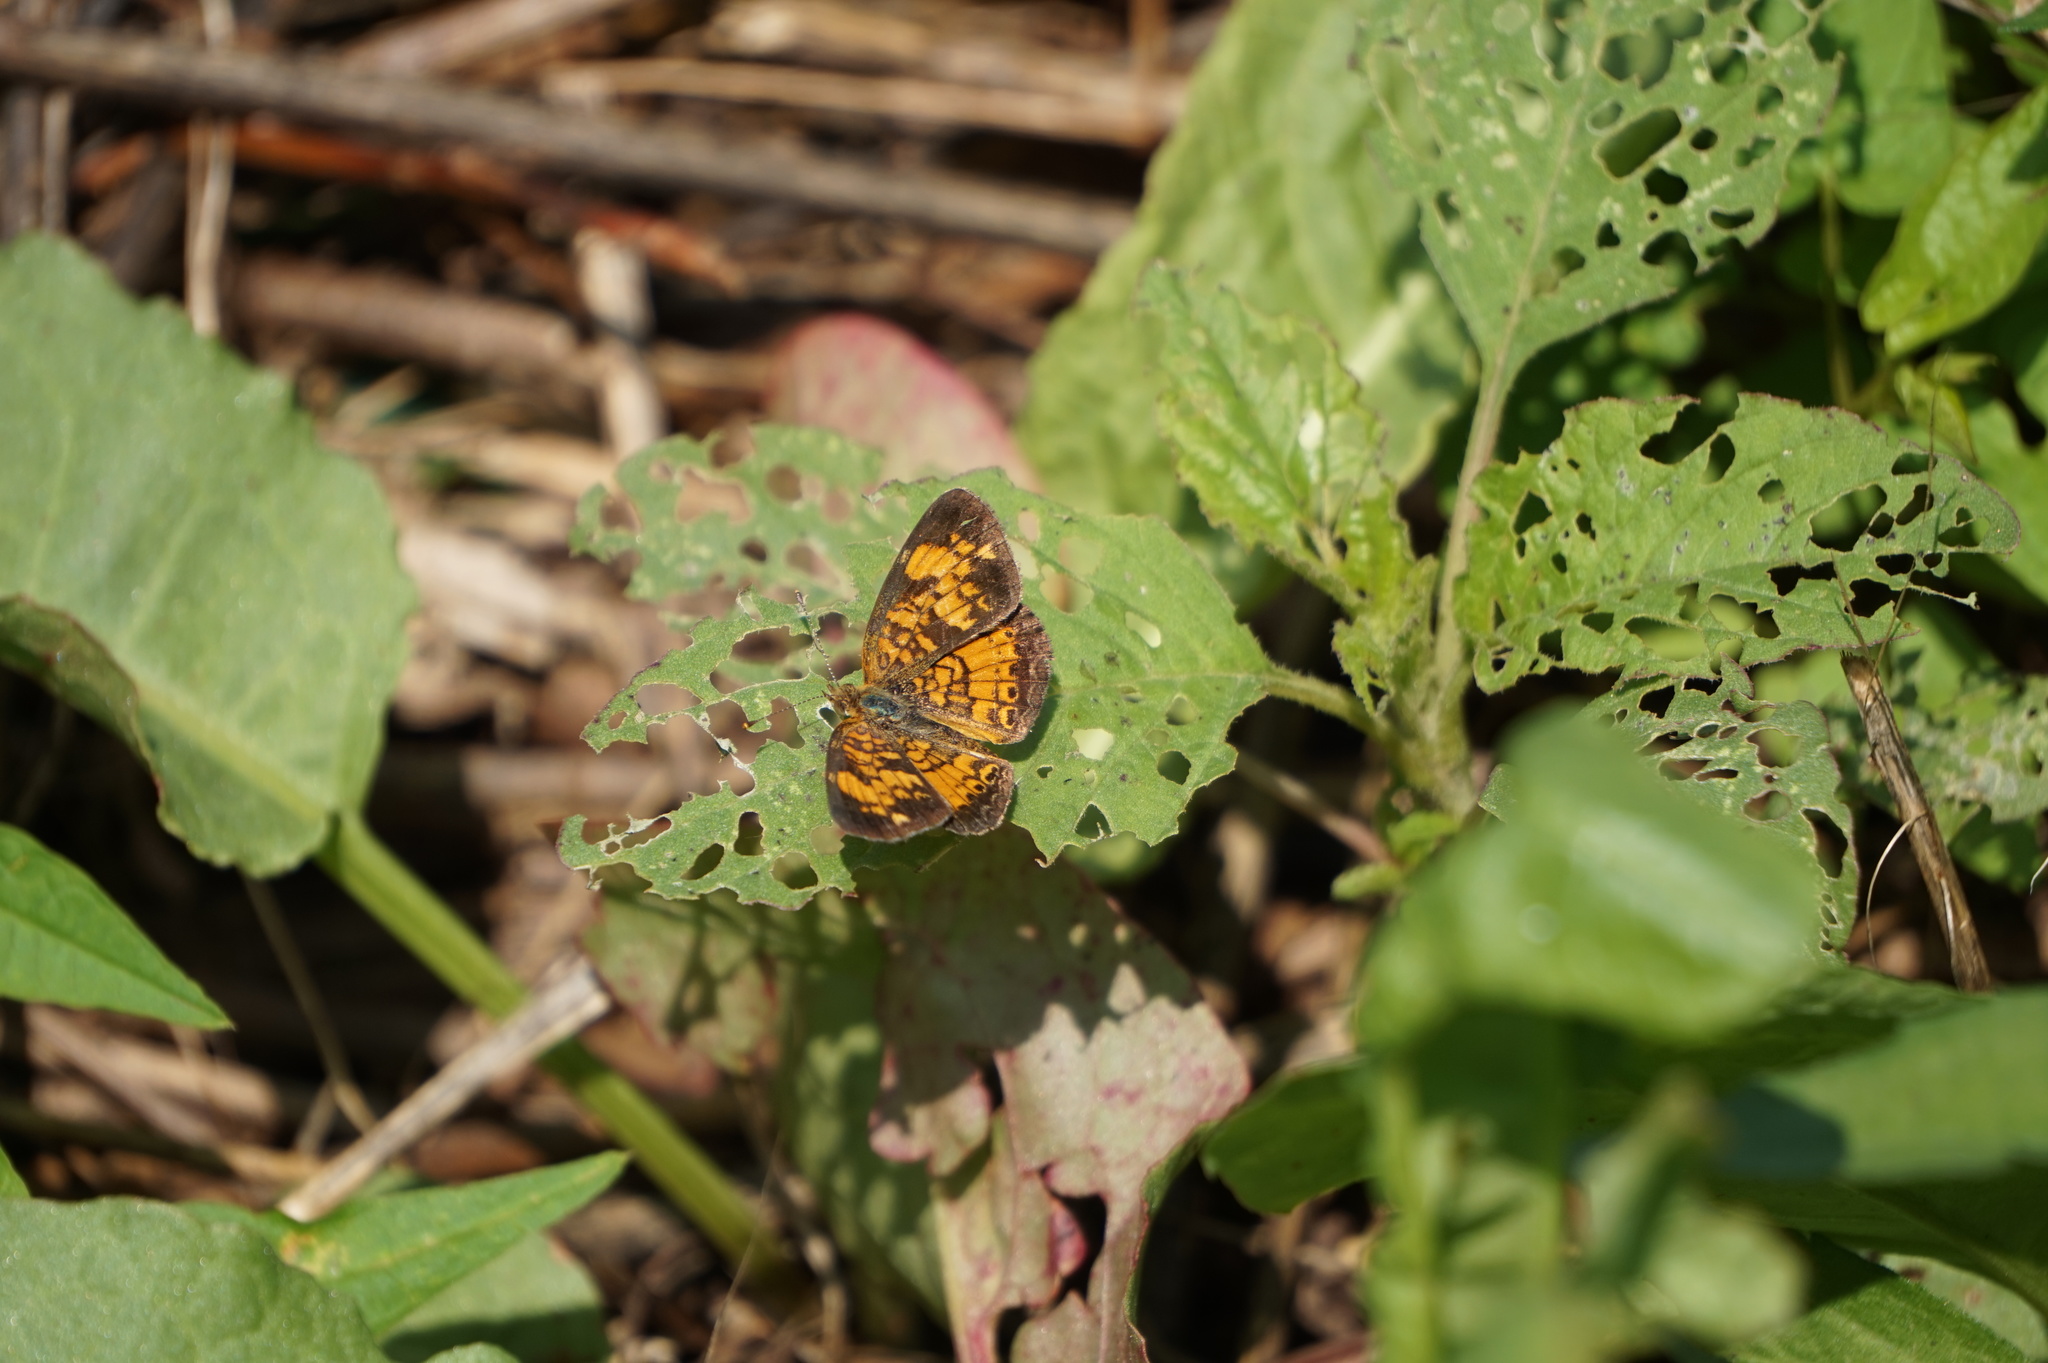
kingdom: Animalia
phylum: Arthropoda
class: Insecta
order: Lepidoptera
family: Nymphalidae
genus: Phyciodes
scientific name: Phyciodes tharos
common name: Pearl crescent
